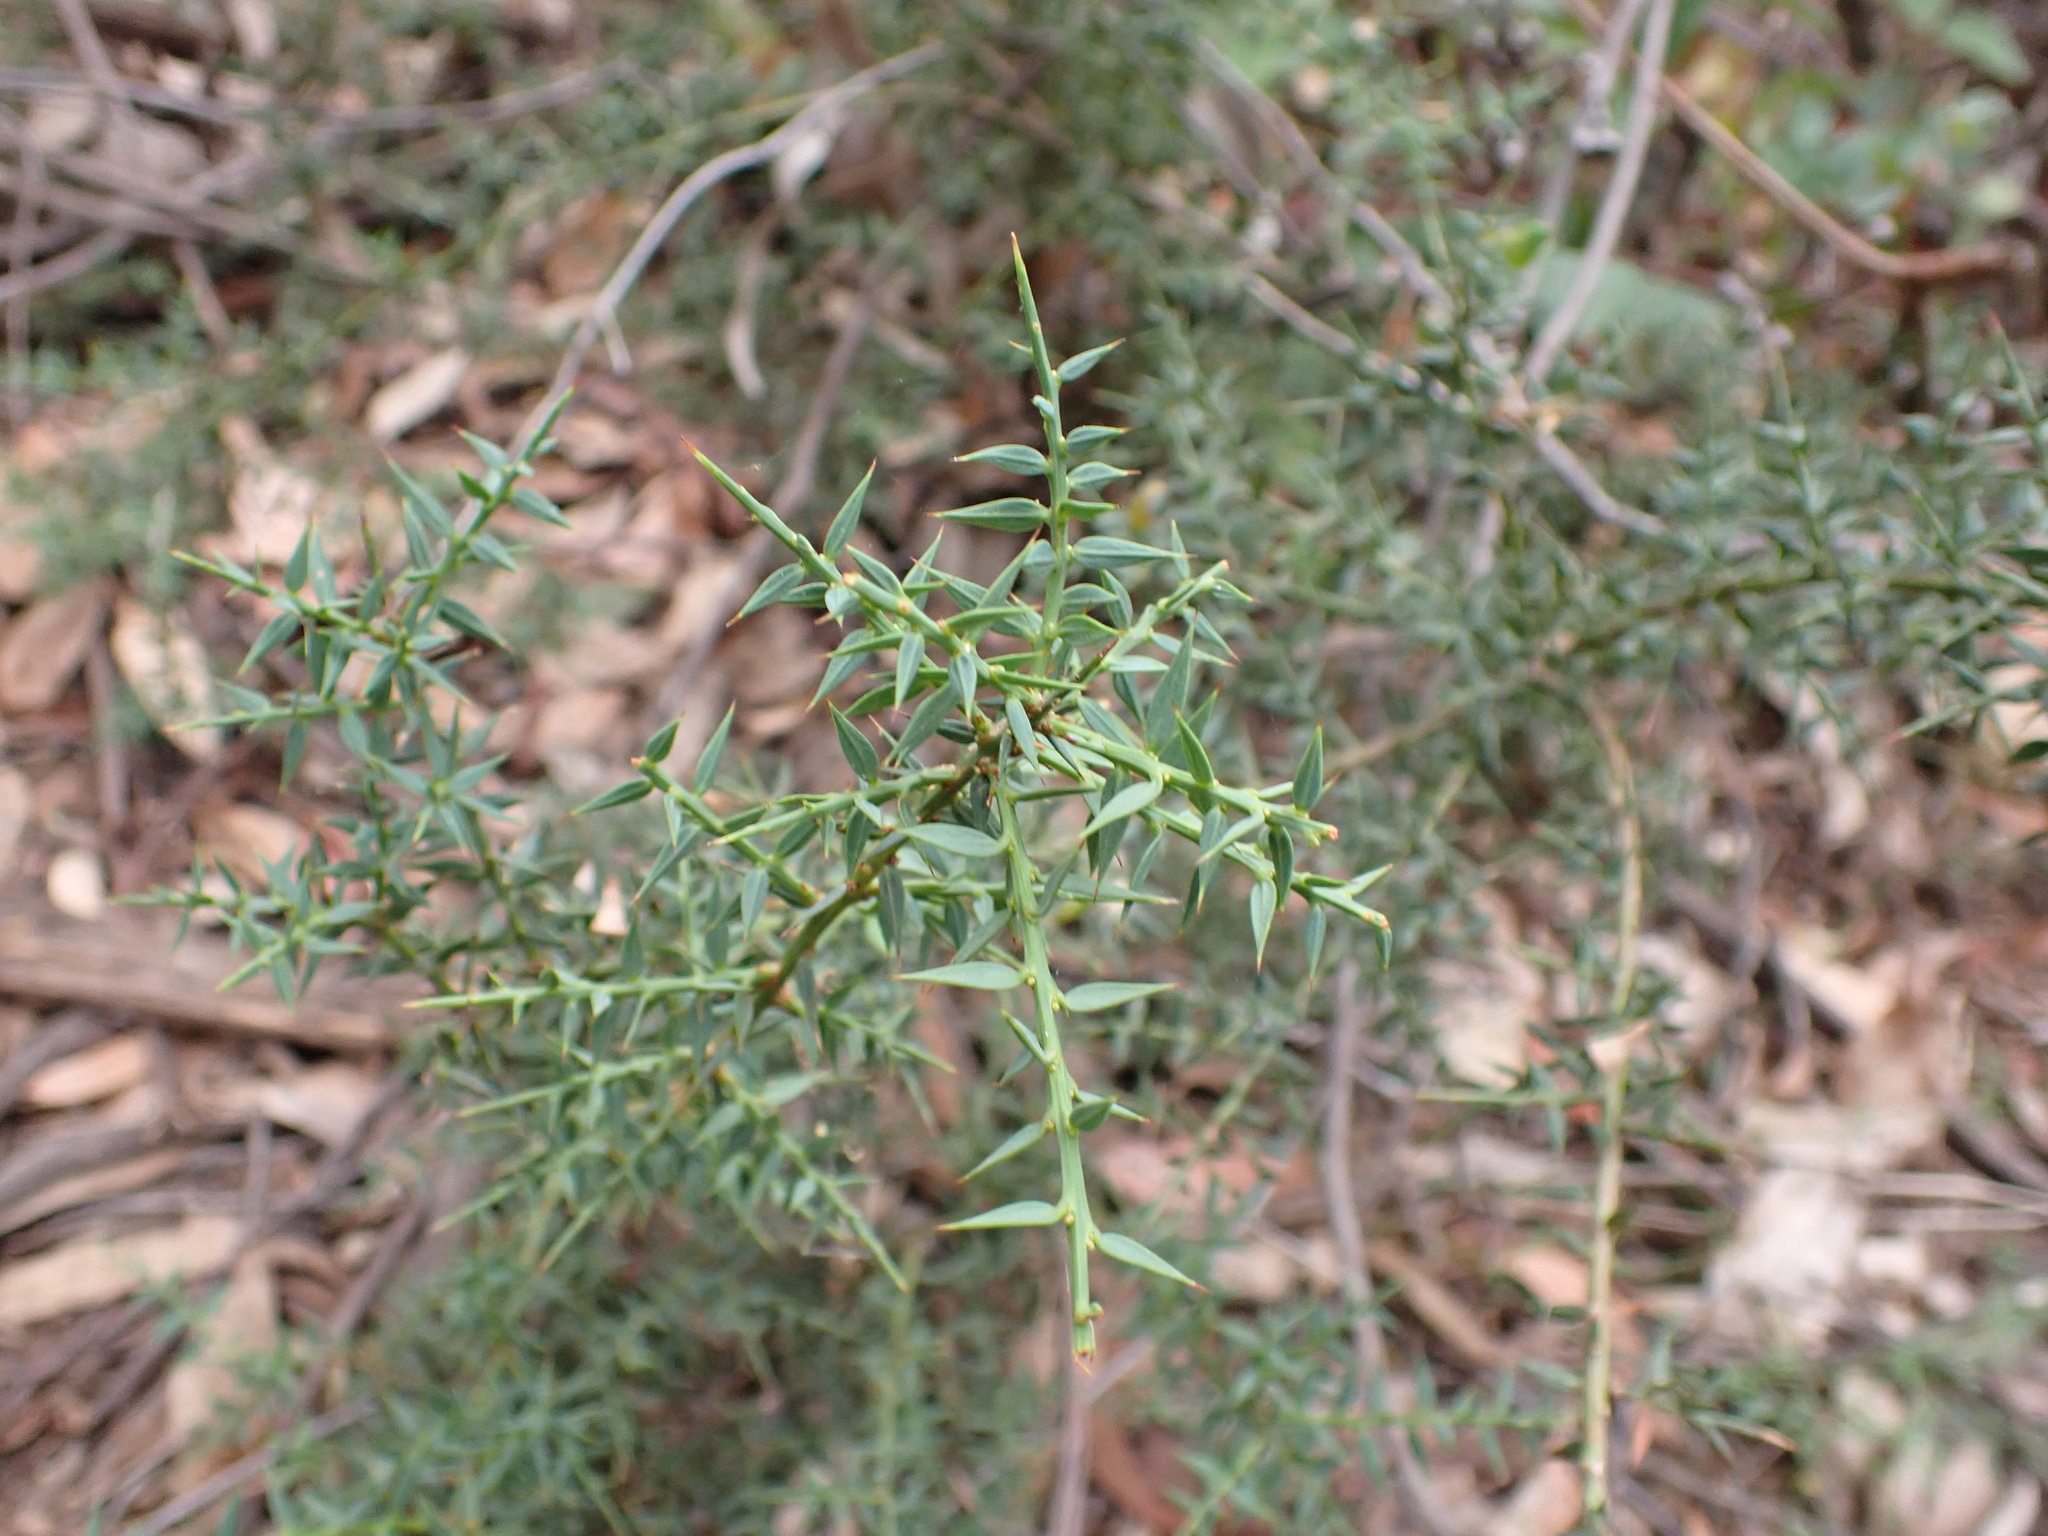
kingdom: Plantae
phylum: Tracheophyta
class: Magnoliopsida
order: Fabales
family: Fabaceae
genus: Daviesia
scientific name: Daviesia ulicifolia
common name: Gorse bitter-pea
